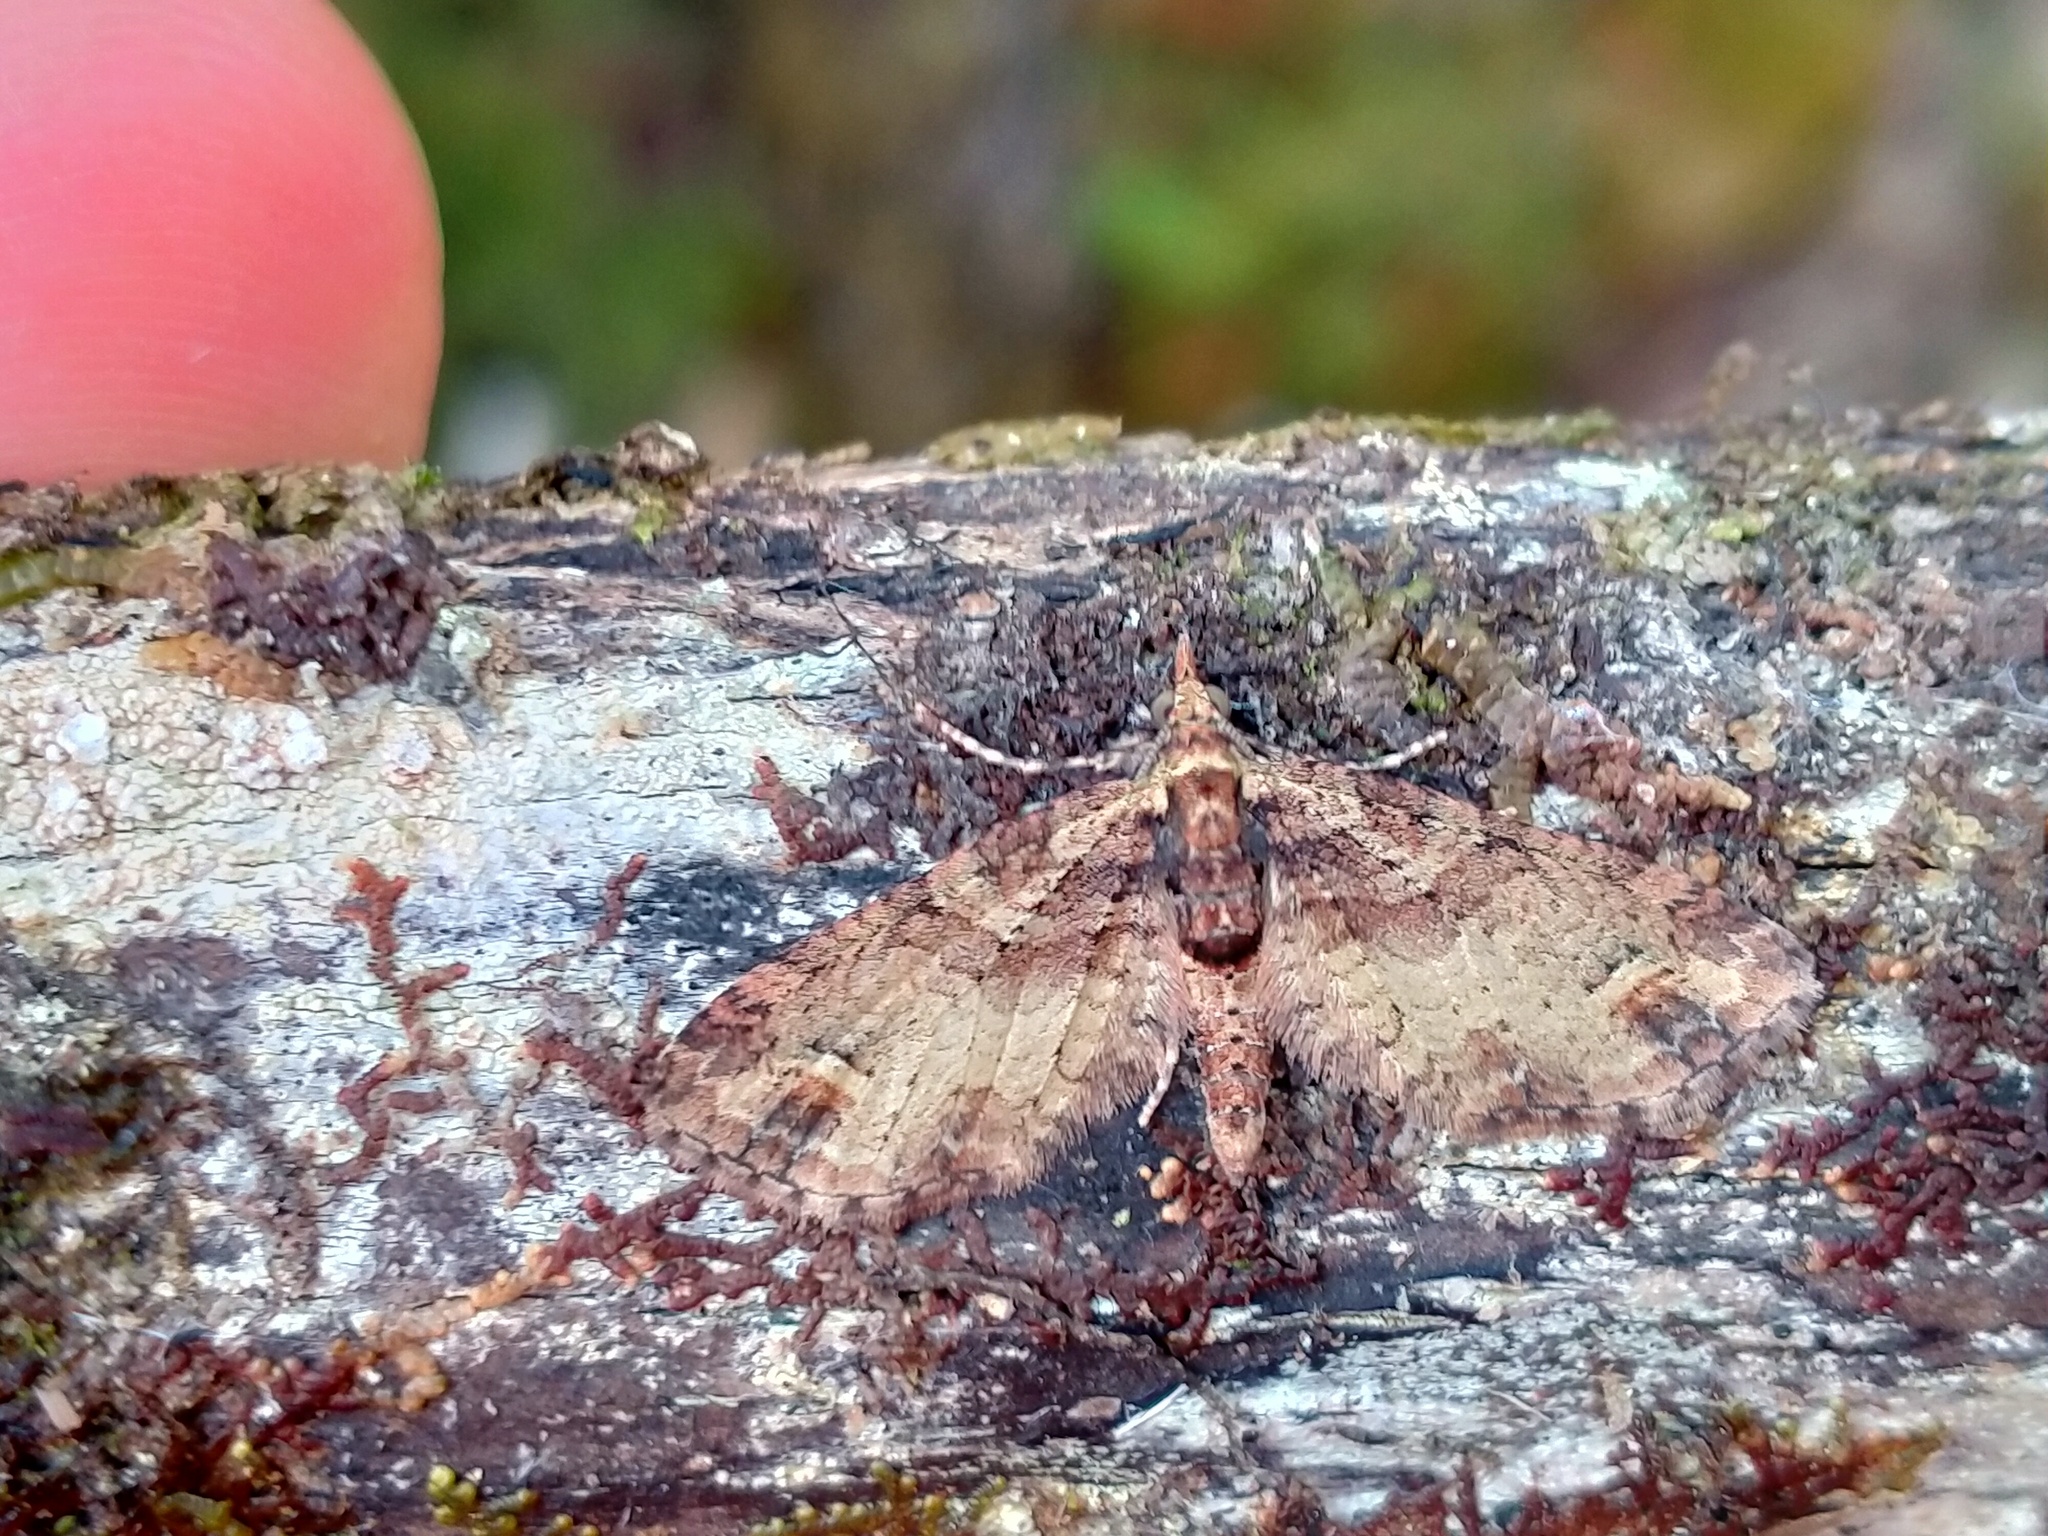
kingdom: Animalia
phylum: Arthropoda
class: Insecta
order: Lepidoptera
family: Geometridae
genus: Idaea
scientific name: Idaea mutanda
